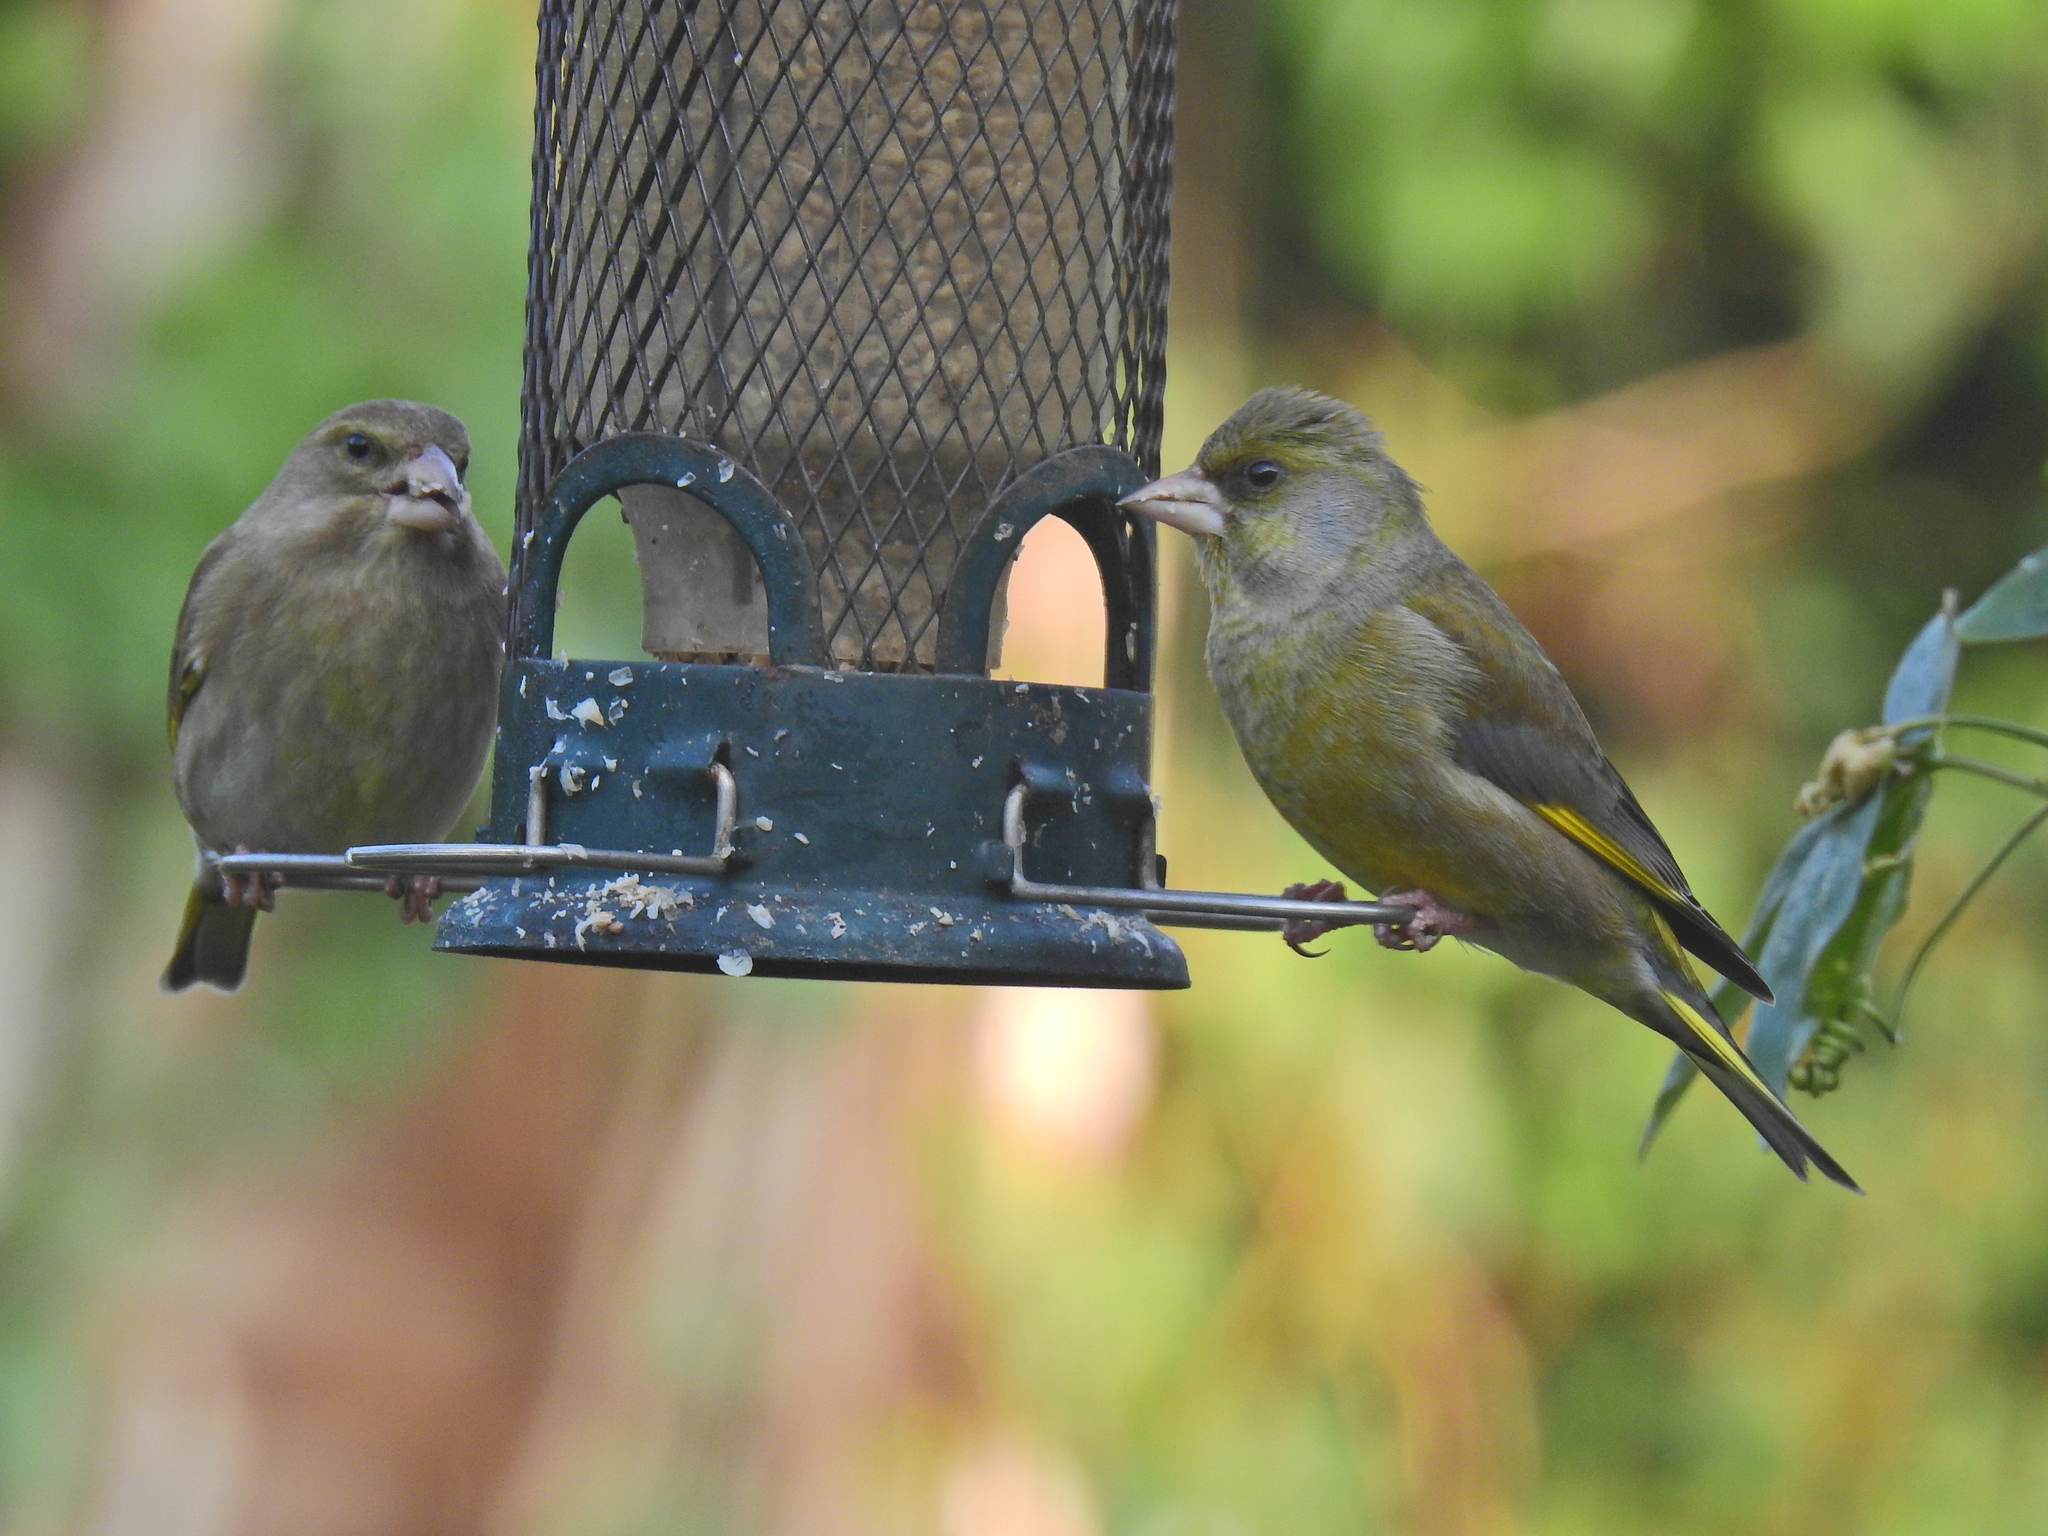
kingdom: Plantae
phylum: Tracheophyta
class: Liliopsida
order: Poales
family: Poaceae
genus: Chloris
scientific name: Chloris chloris
